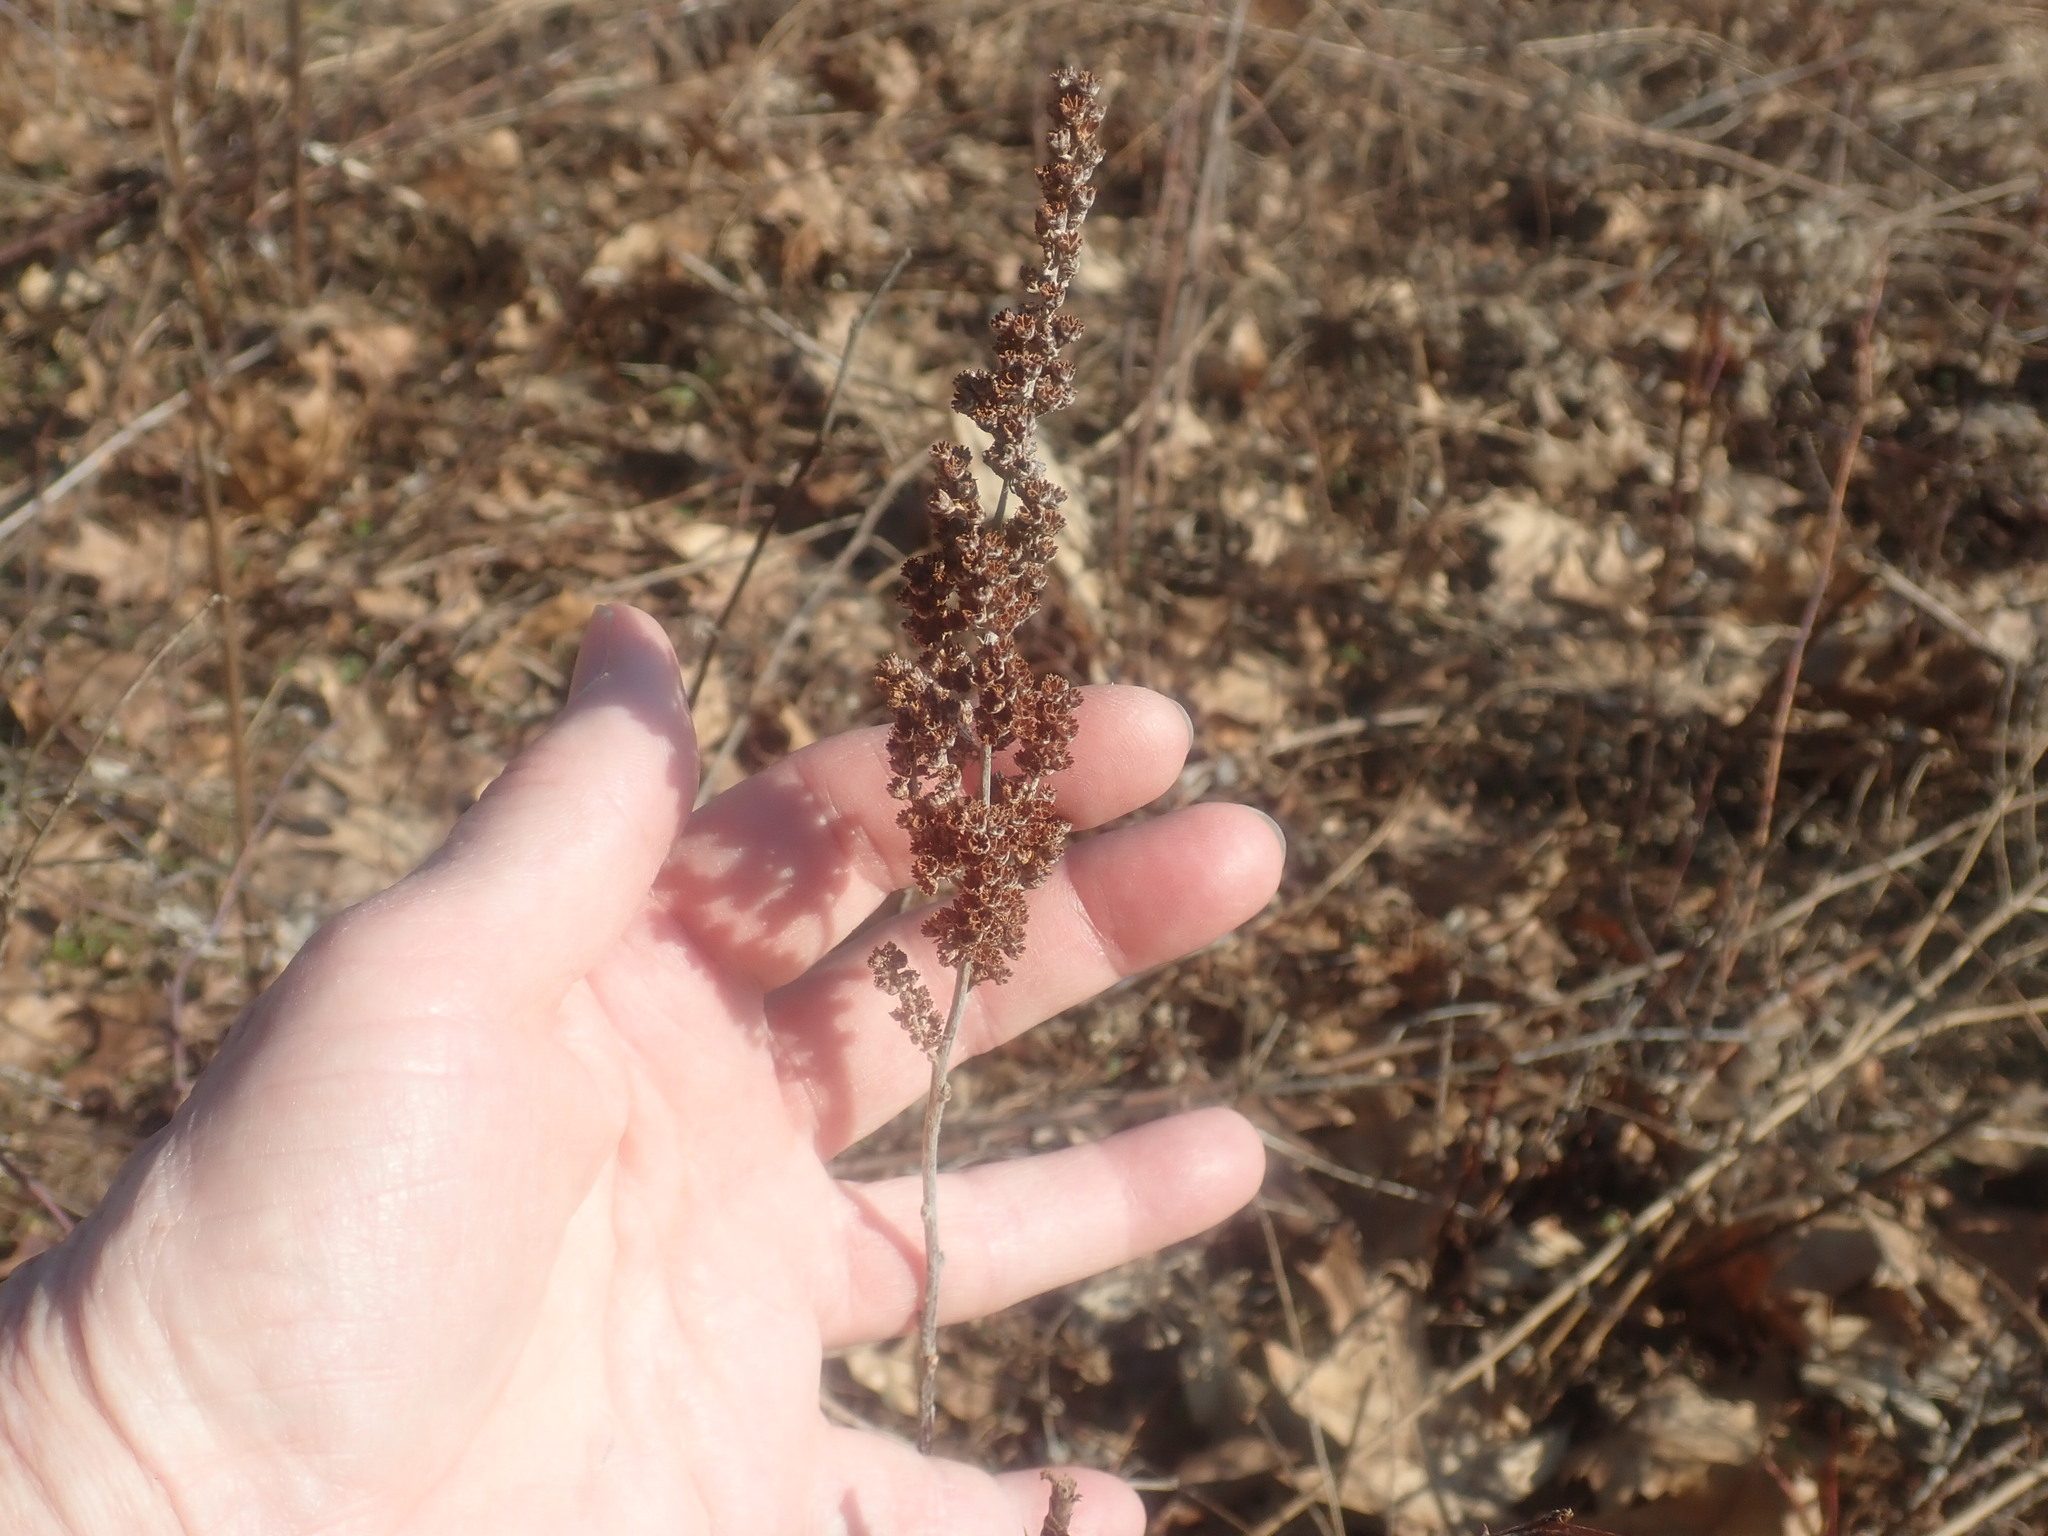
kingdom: Plantae
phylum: Tracheophyta
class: Magnoliopsida
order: Rosales
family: Rosaceae
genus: Spiraea
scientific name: Spiraea tomentosa
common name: Hardhack
